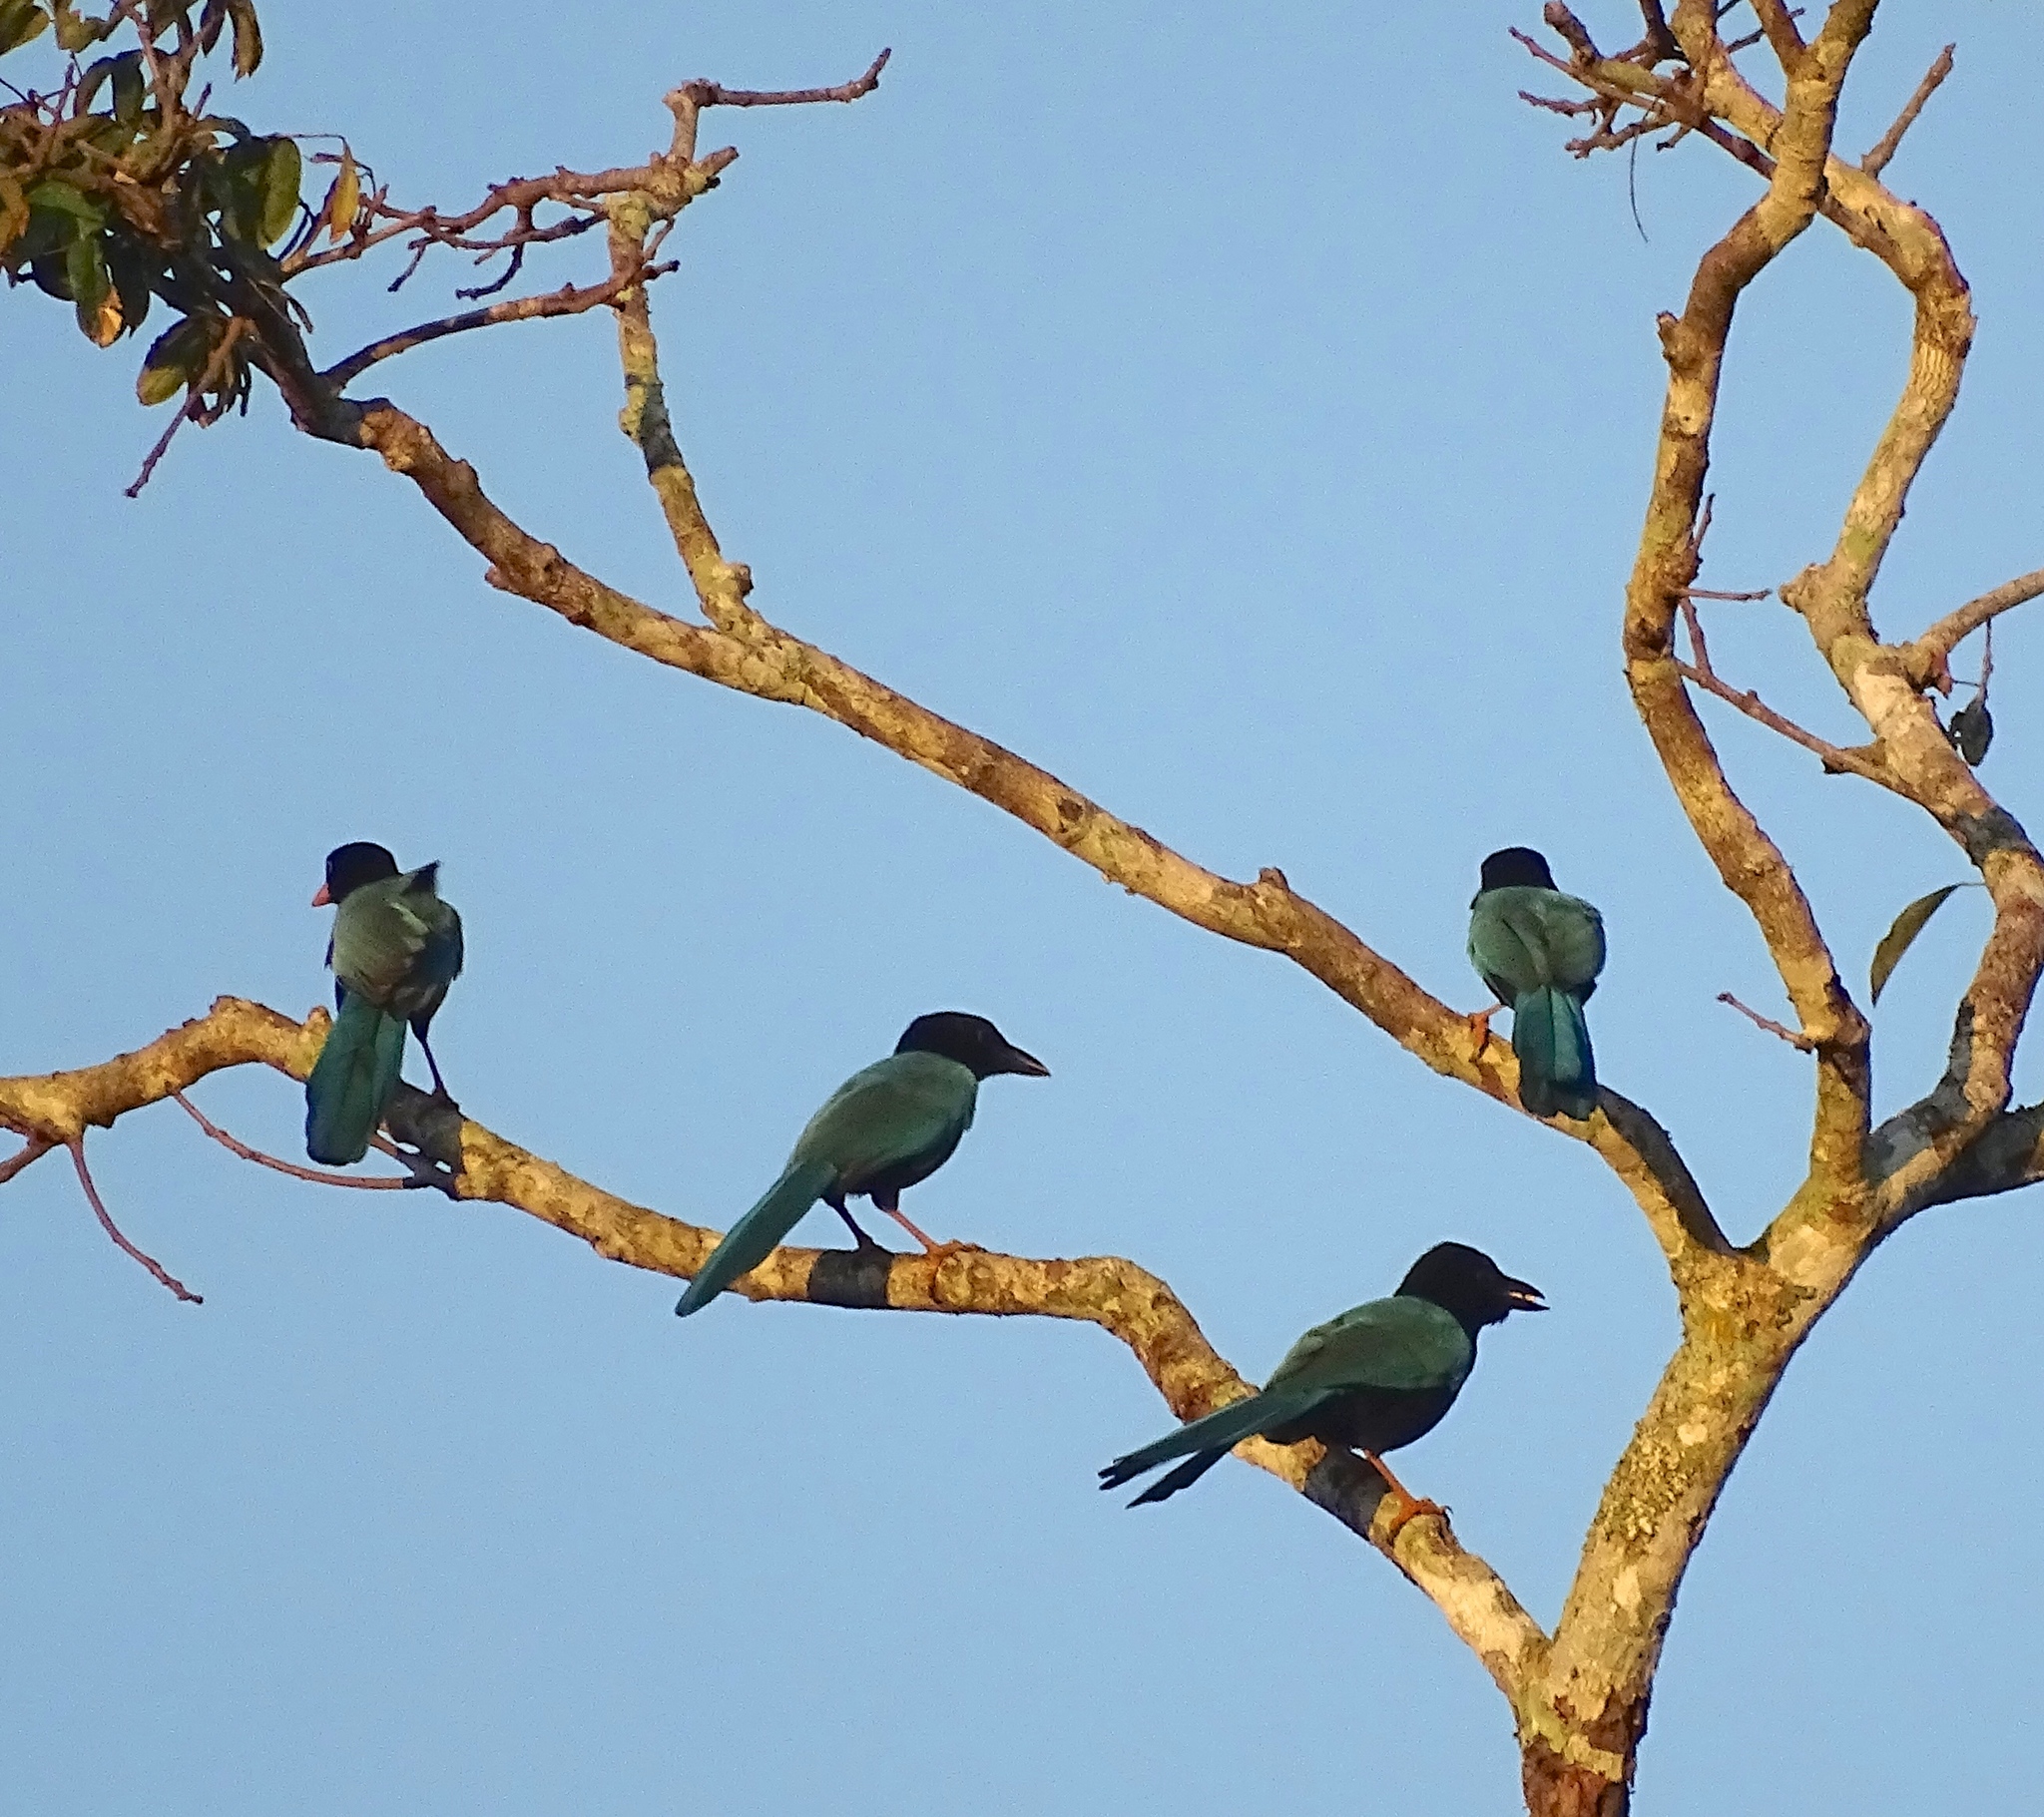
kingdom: Animalia
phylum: Chordata
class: Aves
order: Passeriformes
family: Corvidae
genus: Cyanocorax
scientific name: Cyanocorax yucatanicus
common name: Yucatan jay
